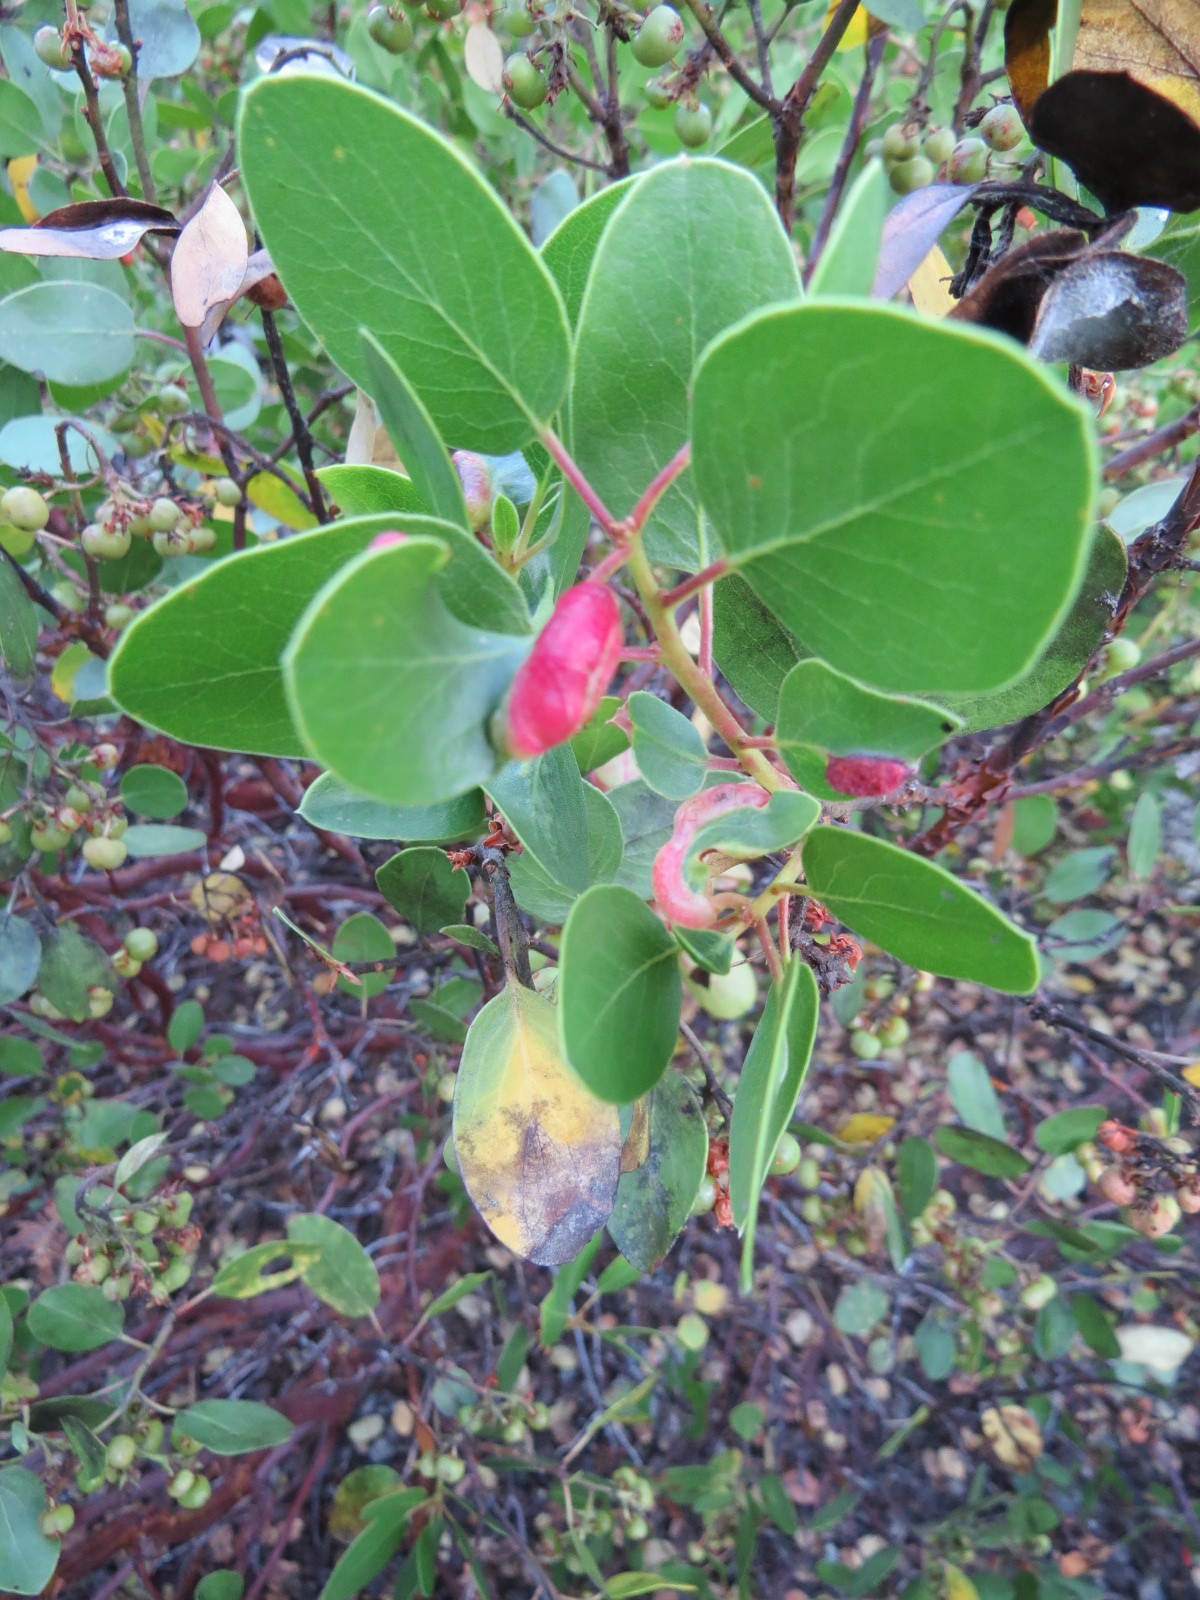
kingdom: Animalia
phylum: Arthropoda
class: Insecta
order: Hemiptera
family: Aphididae
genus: Tamalia
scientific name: Tamalia coweni
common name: Manzanita leafgall aphid
